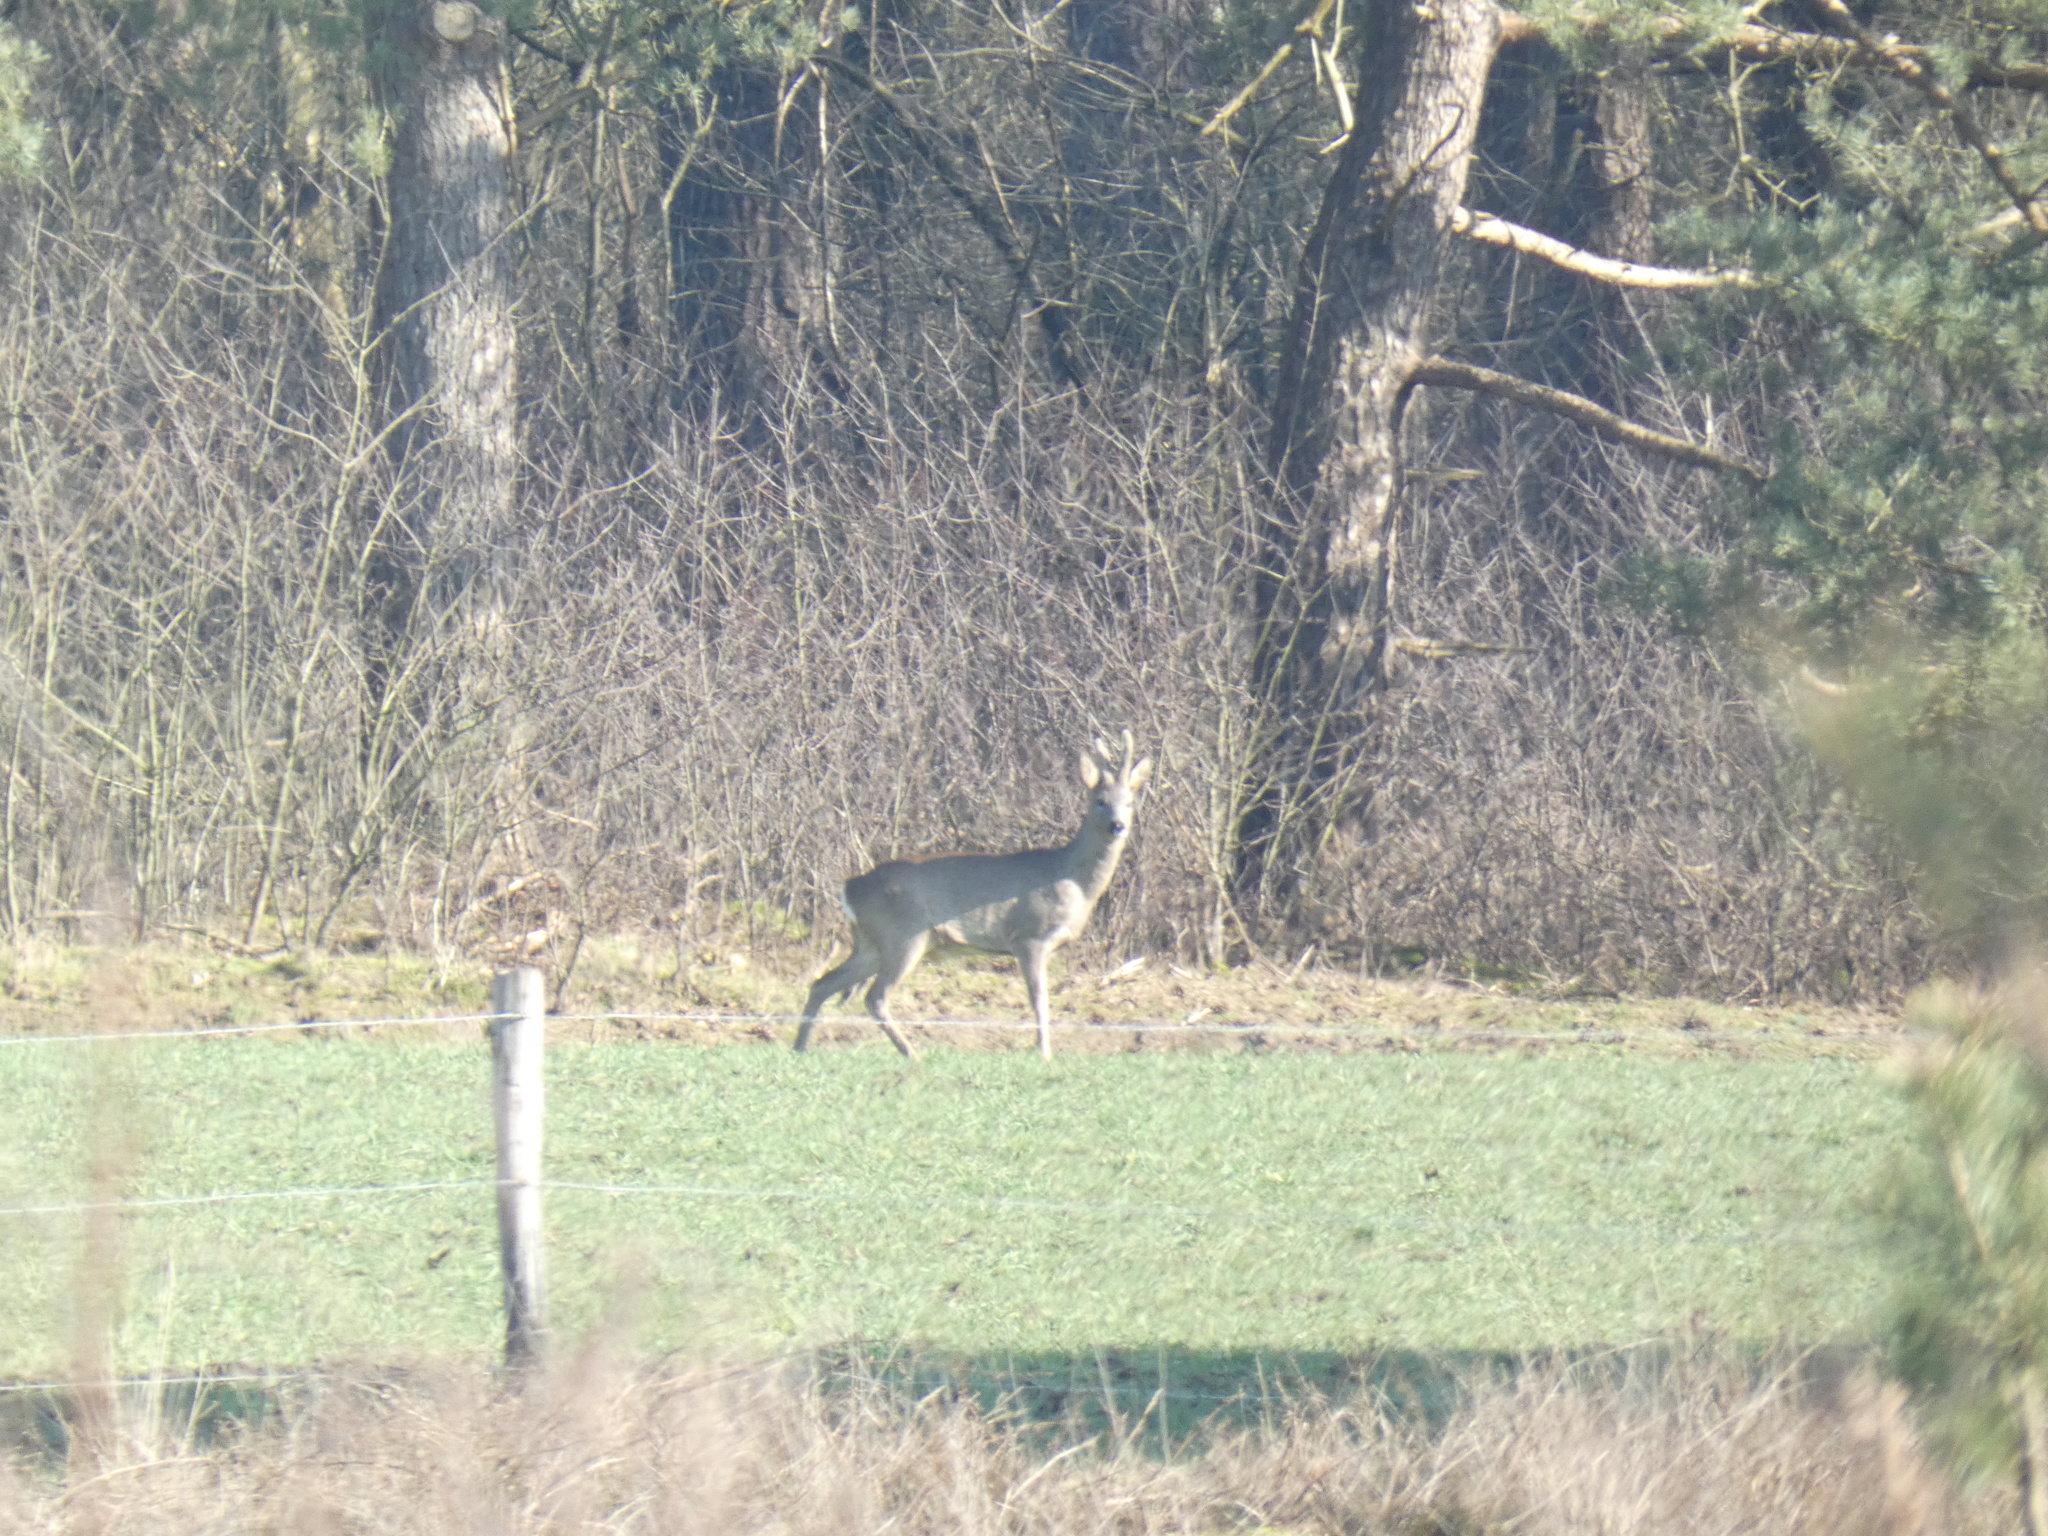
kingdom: Animalia
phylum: Chordata
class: Mammalia
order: Artiodactyla
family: Cervidae
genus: Capreolus
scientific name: Capreolus capreolus
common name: Western roe deer
